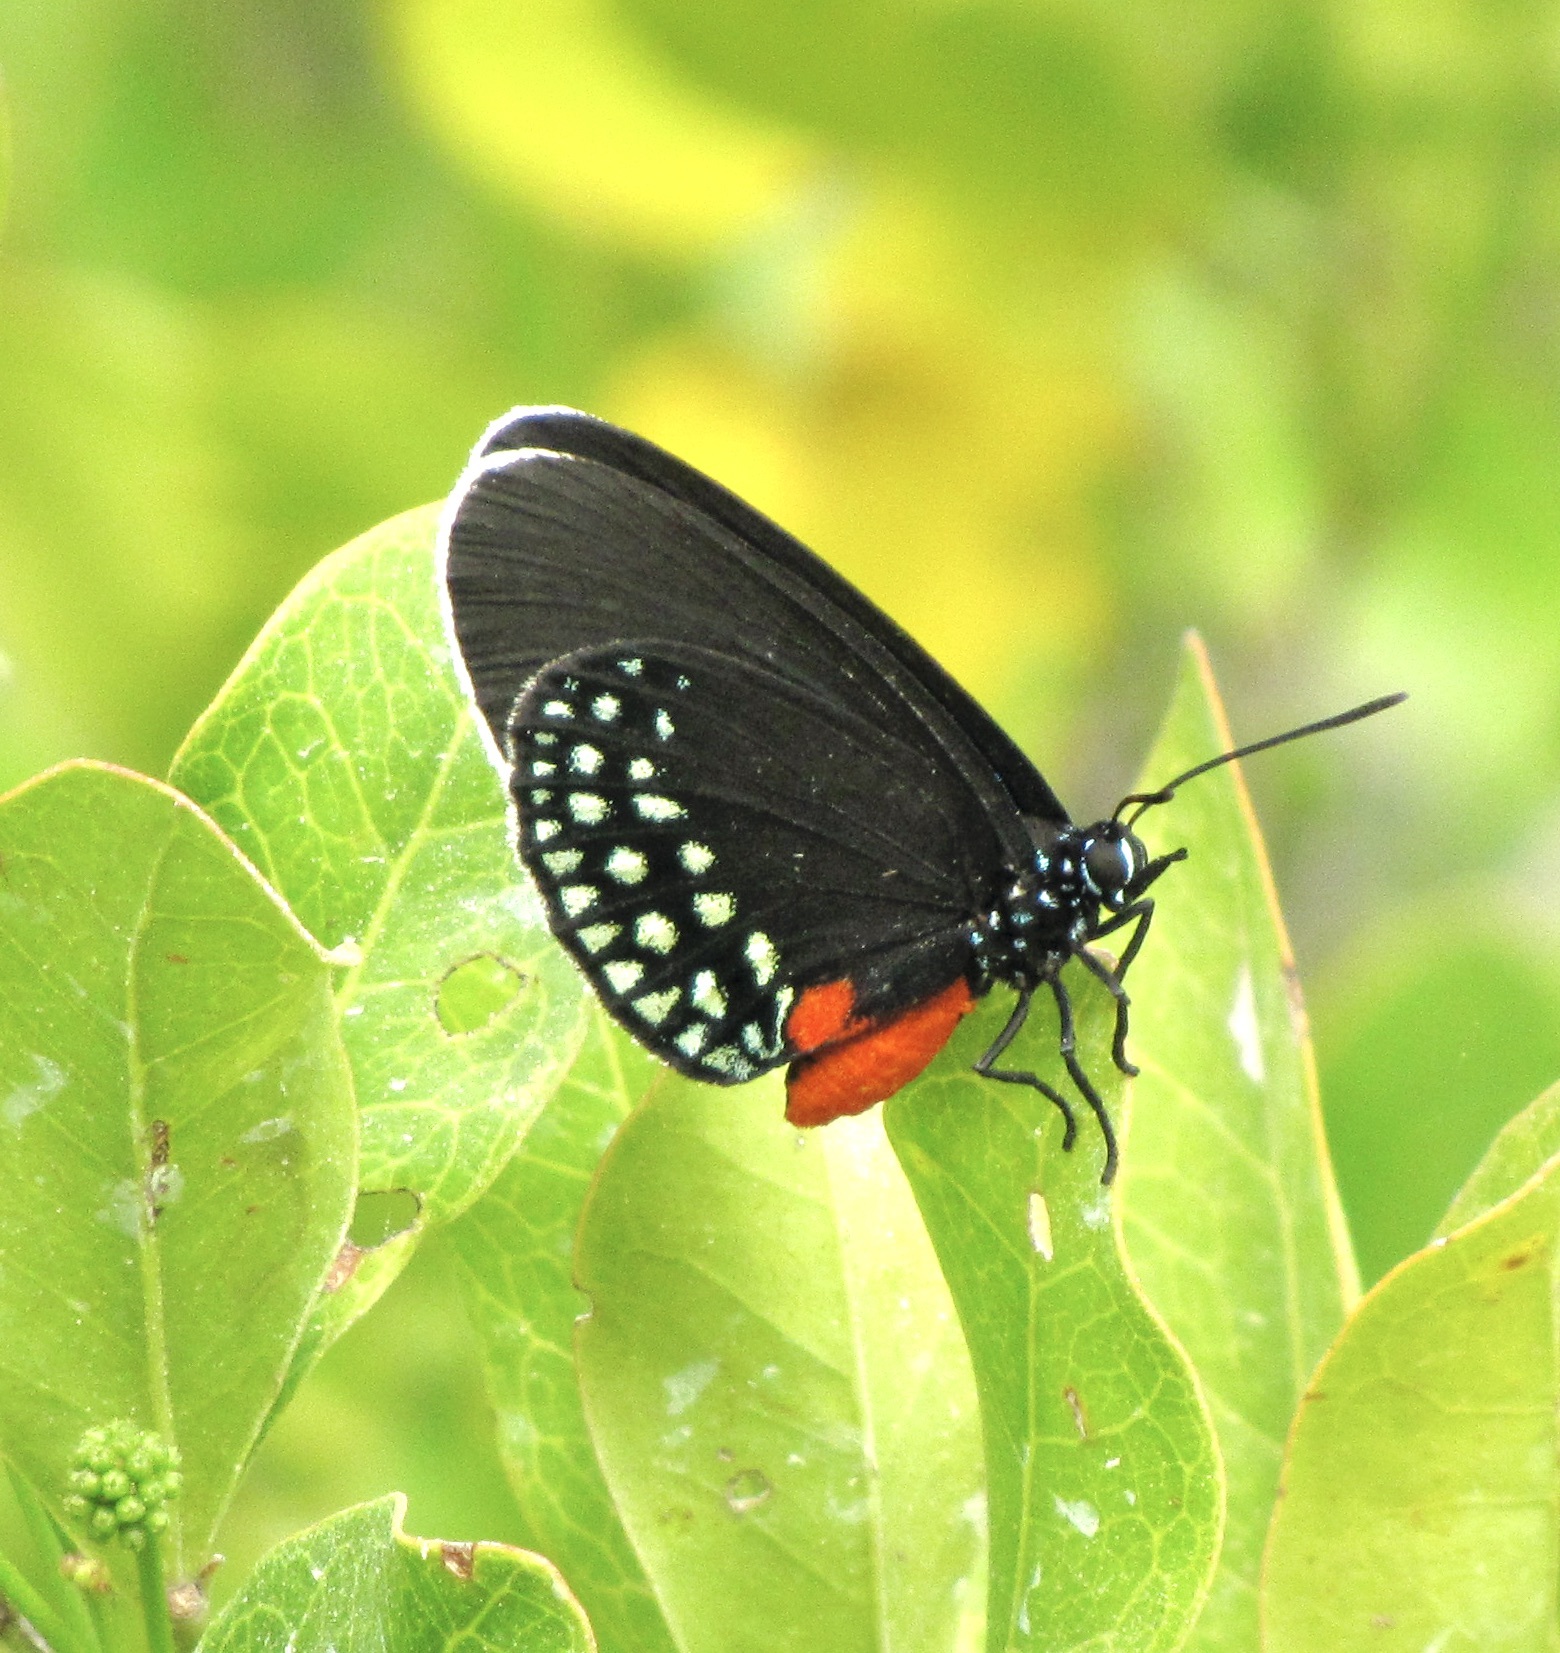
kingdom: Animalia
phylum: Arthropoda
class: Insecta
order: Lepidoptera
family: Lycaenidae
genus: Eumaeus
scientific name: Eumaeus toxea
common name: Mexican cycadian
